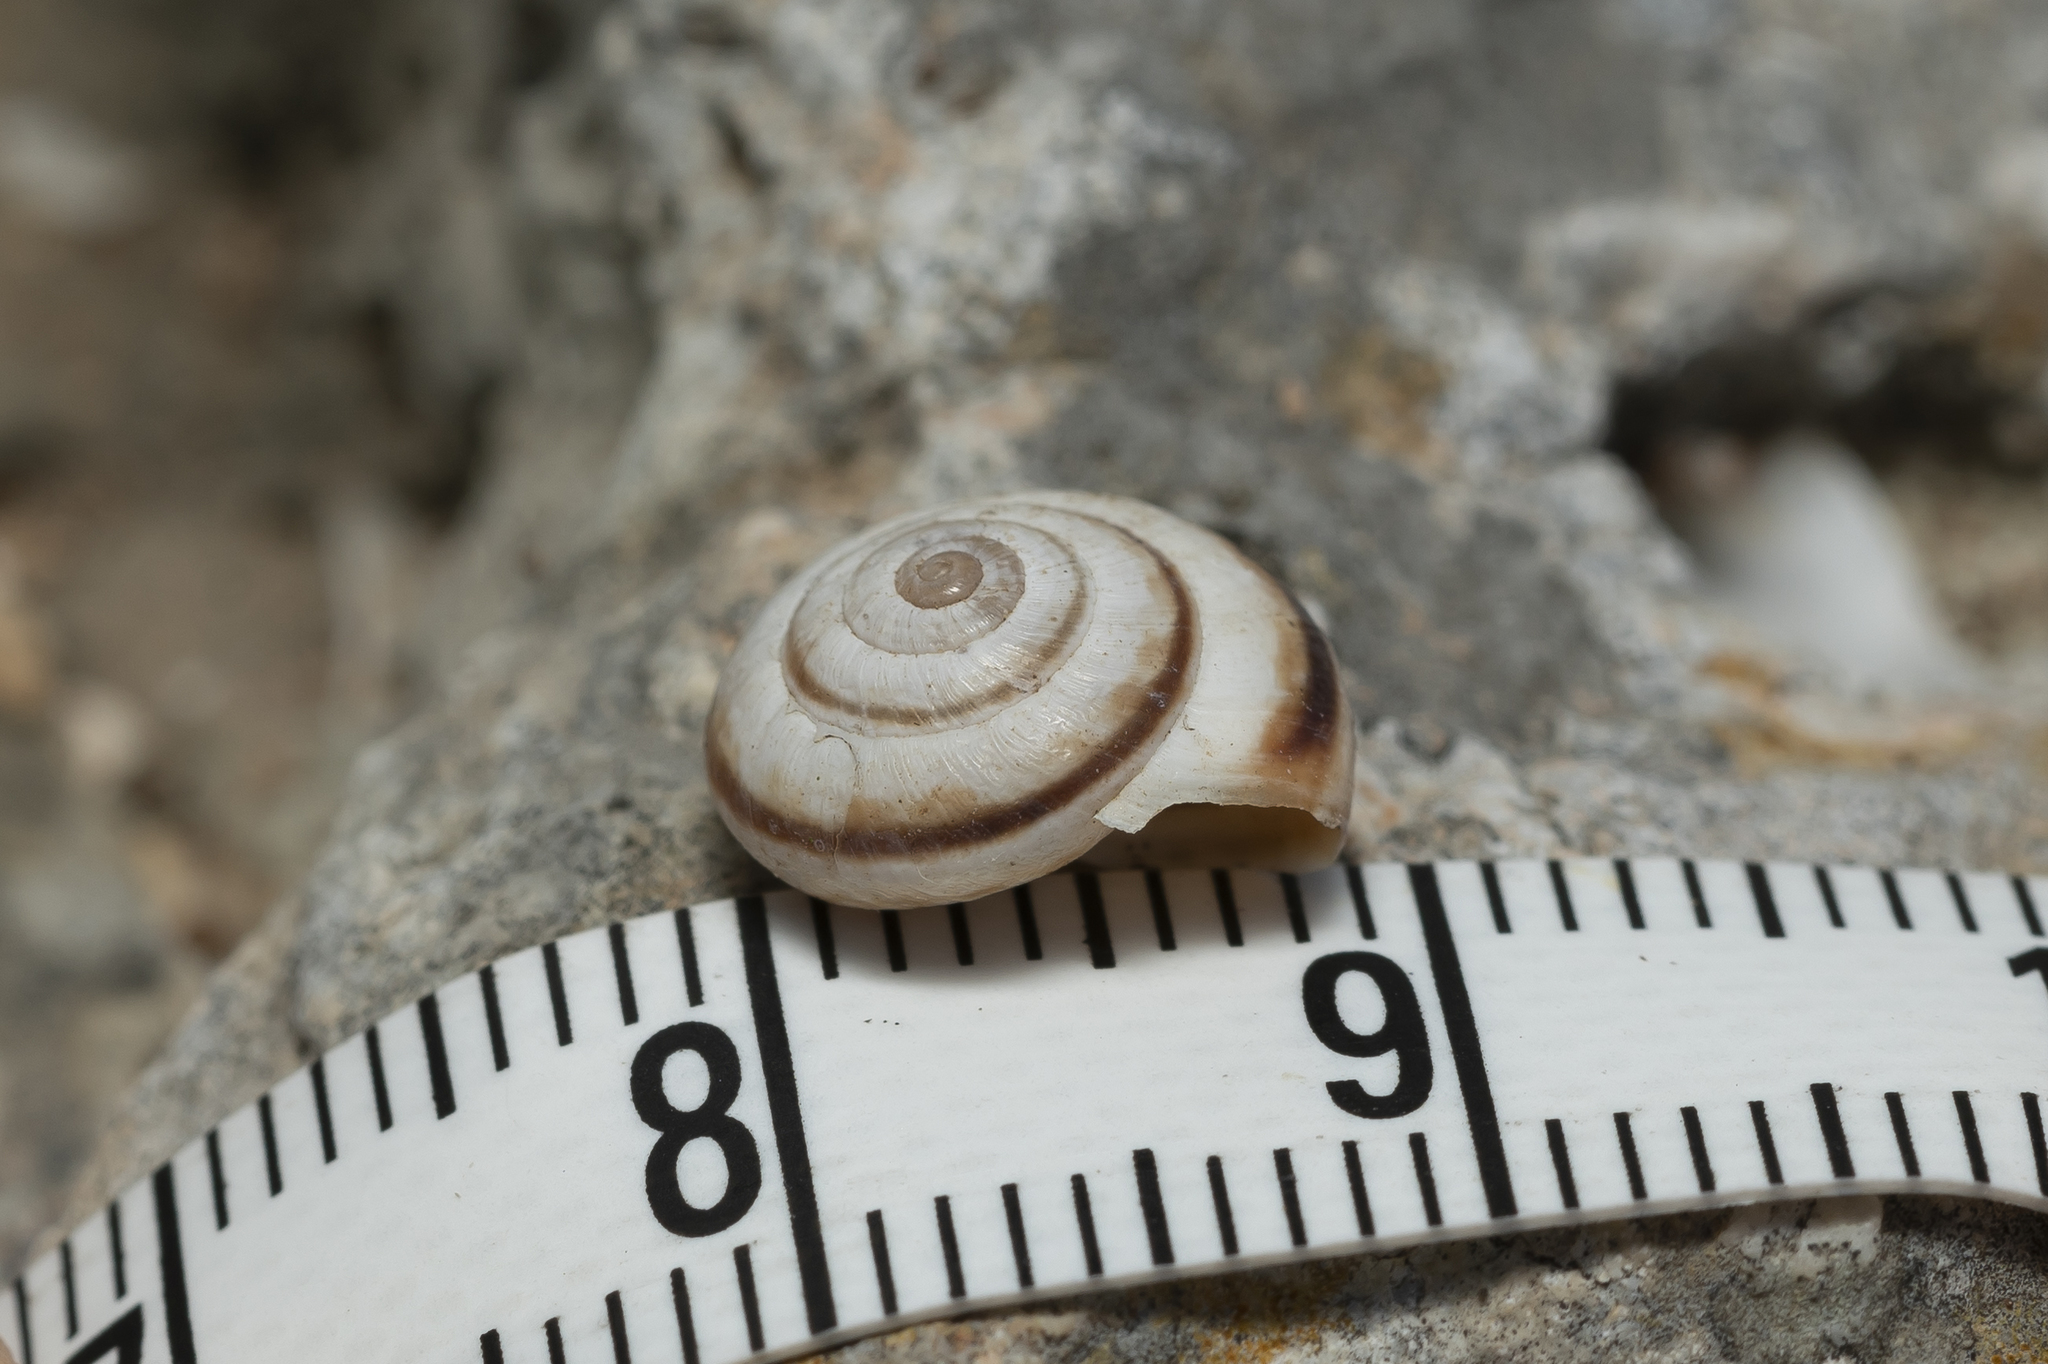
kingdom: Animalia
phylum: Mollusca
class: Gastropoda
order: Stylommatophora
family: Geomitridae
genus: Cernuella
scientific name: Cernuella virgata
